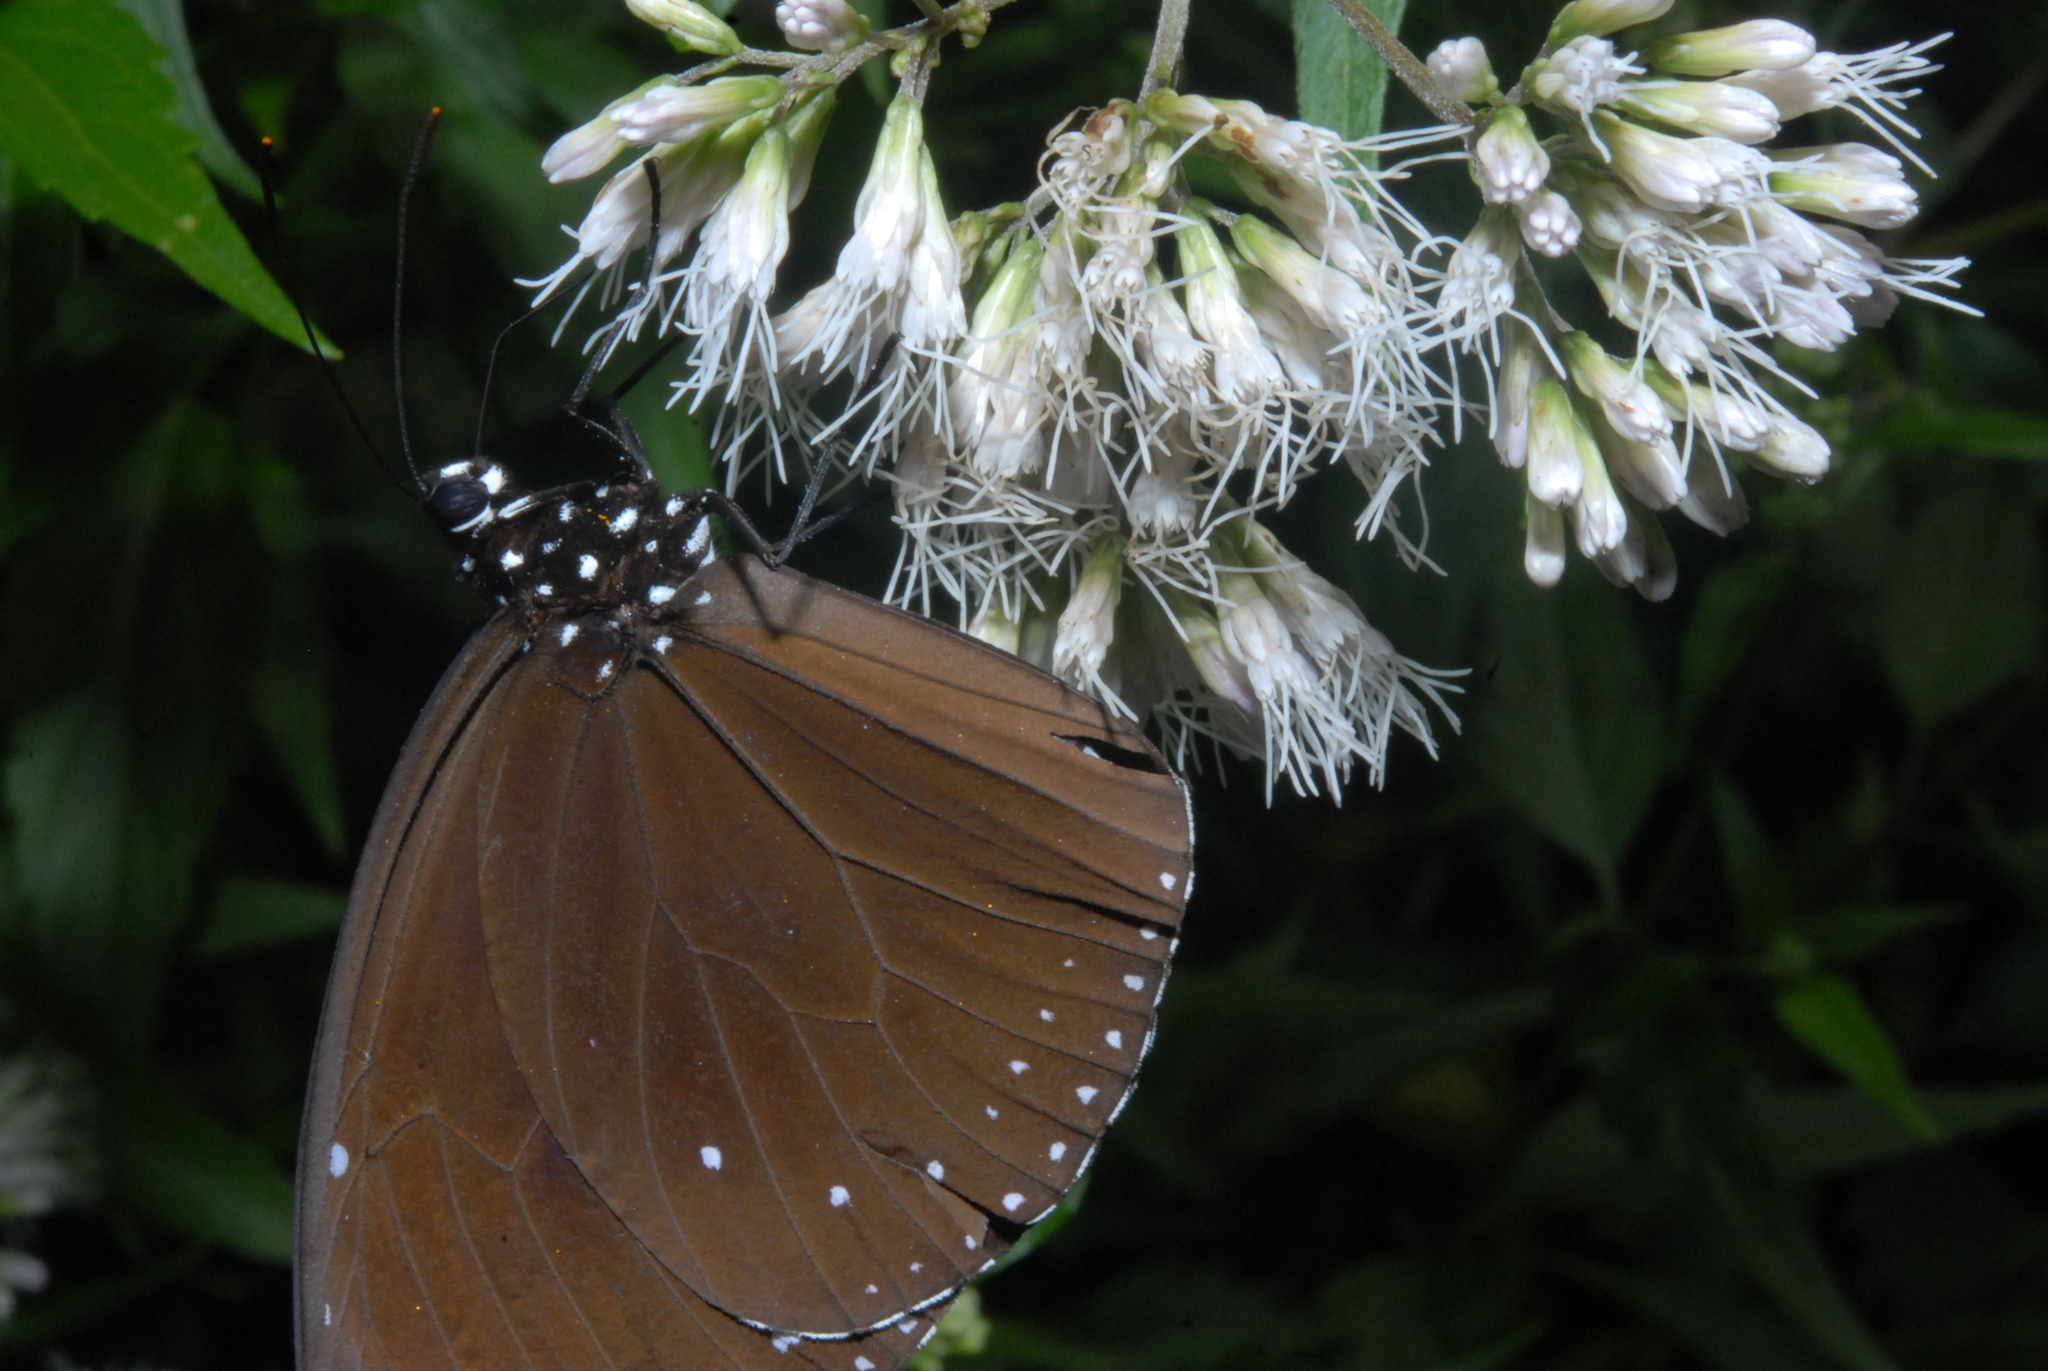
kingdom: Animalia
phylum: Arthropoda
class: Insecta
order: Lepidoptera
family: Nymphalidae
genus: Euploea
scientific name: Euploea tulliolus
